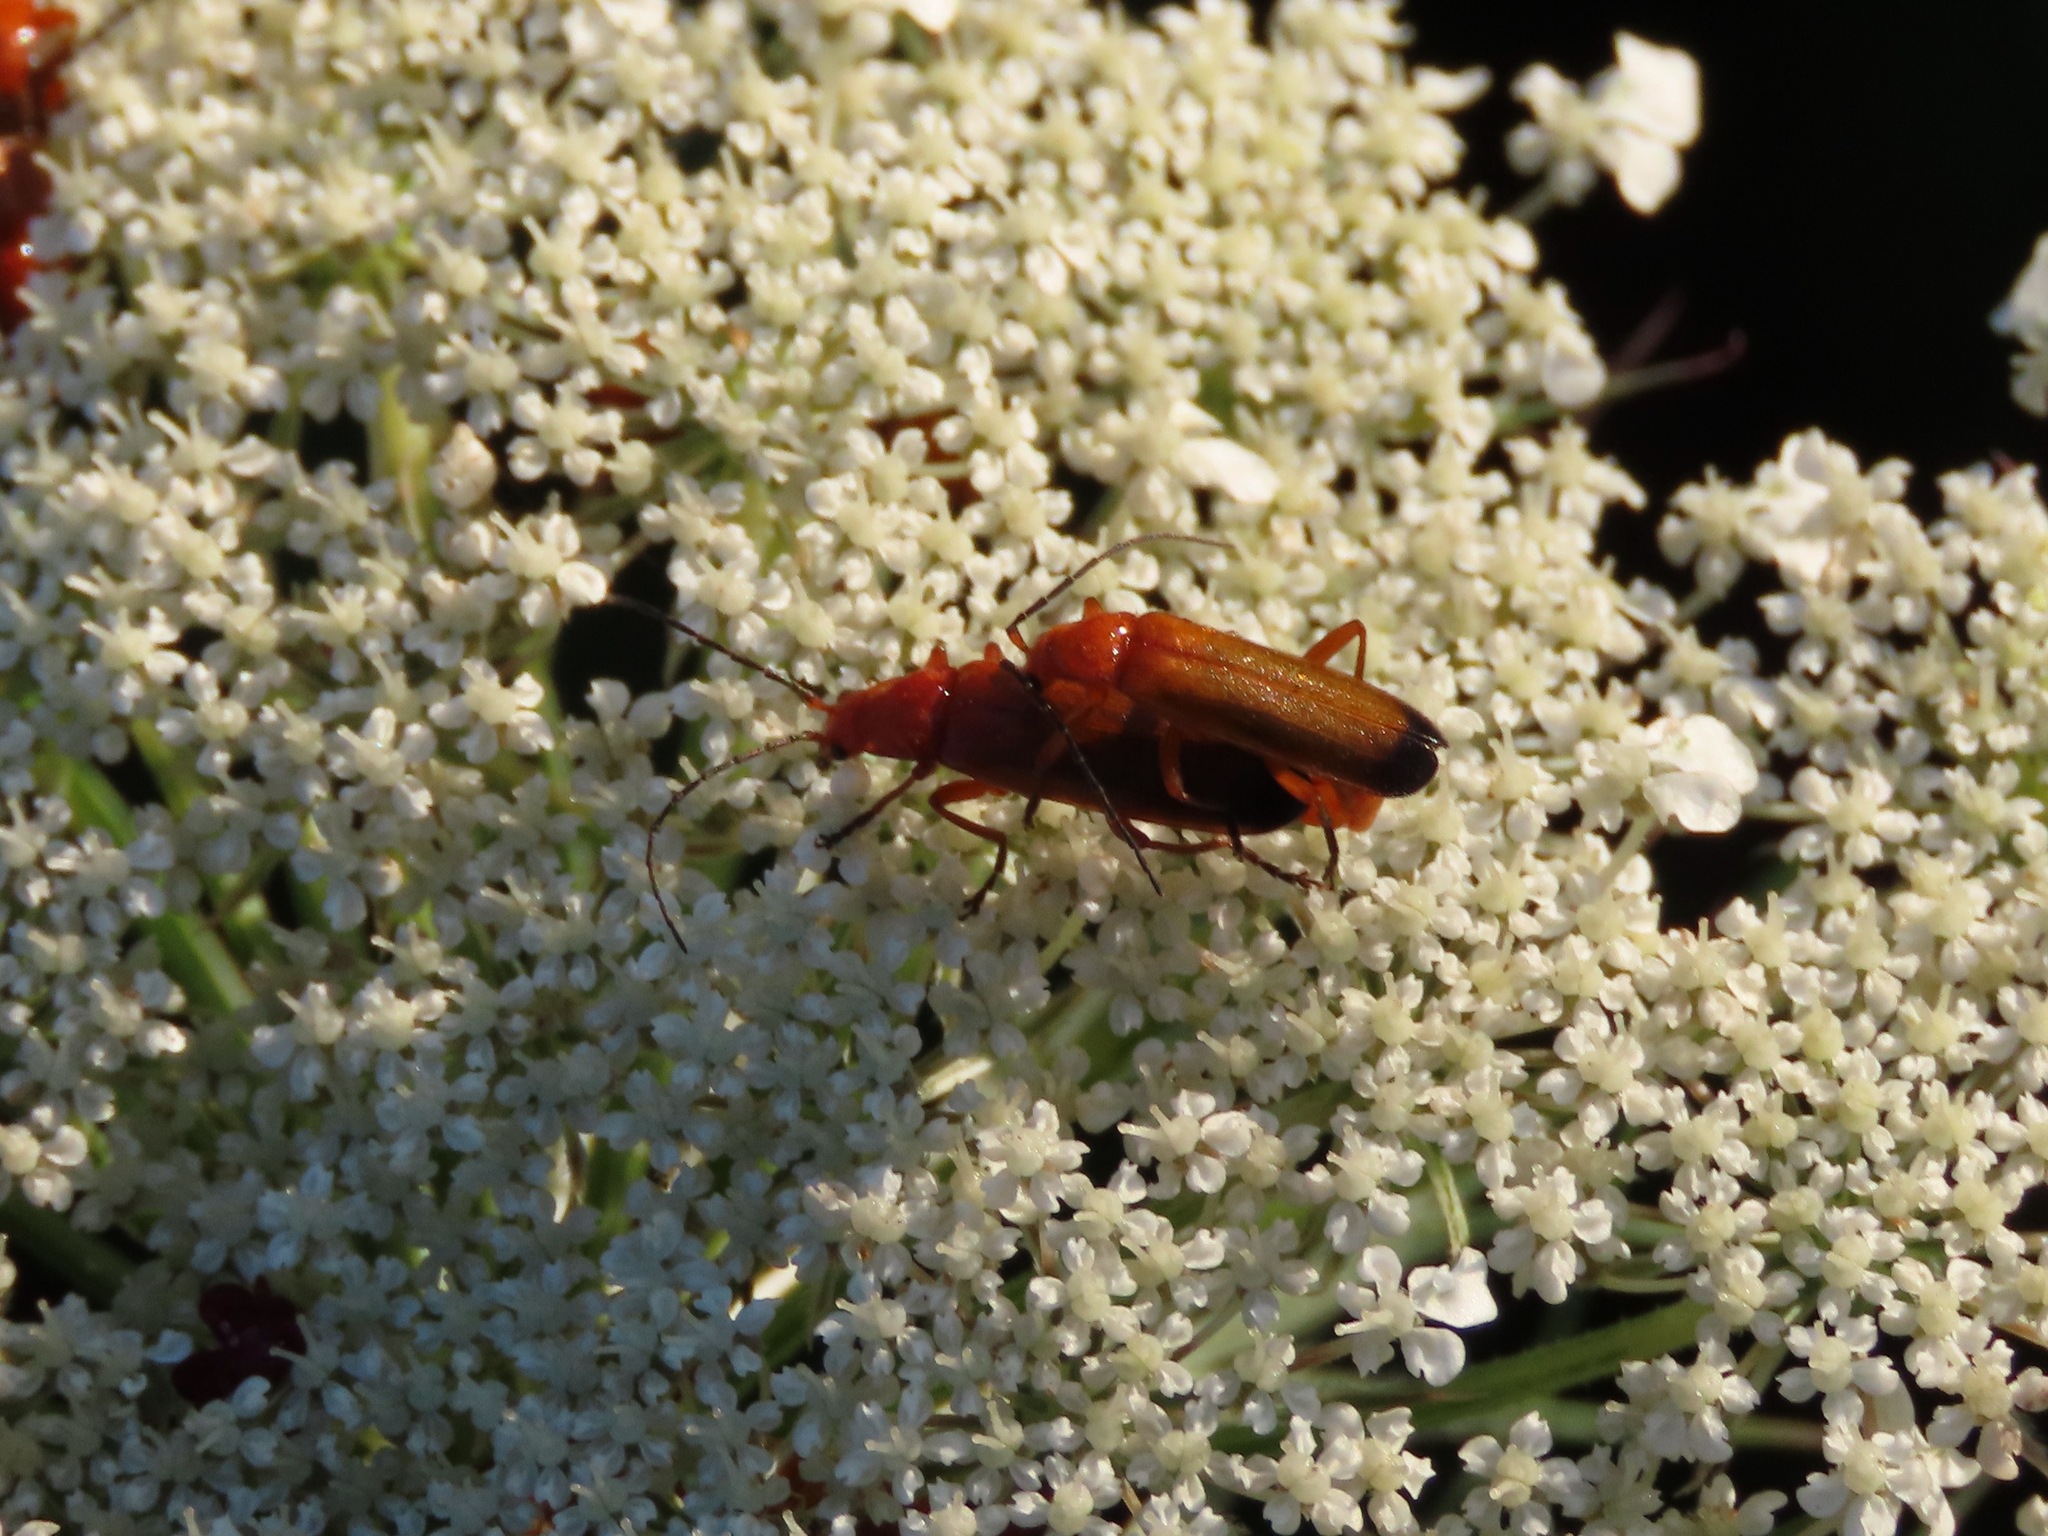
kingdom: Animalia
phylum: Arthropoda
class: Insecta
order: Coleoptera
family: Cantharidae
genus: Rhagonycha
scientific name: Rhagonycha fulva
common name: Common red soldier beetle
